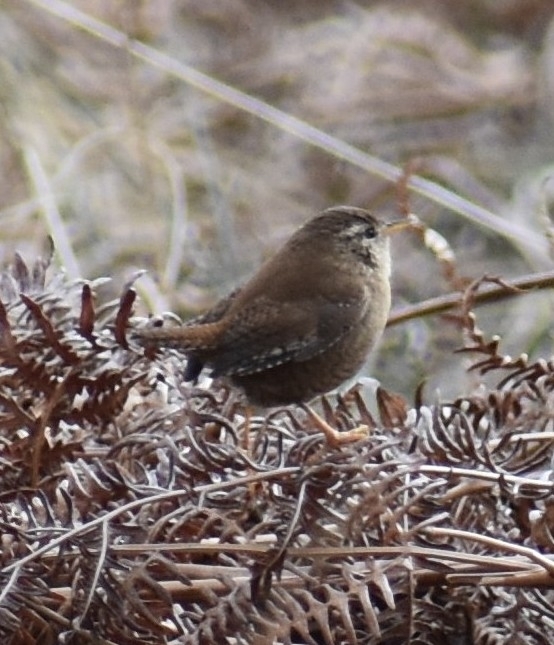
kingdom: Animalia
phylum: Chordata
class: Aves
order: Passeriformes
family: Troglodytidae
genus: Troglodytes
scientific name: Troglodytes troglodytes
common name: Eurasian wren
